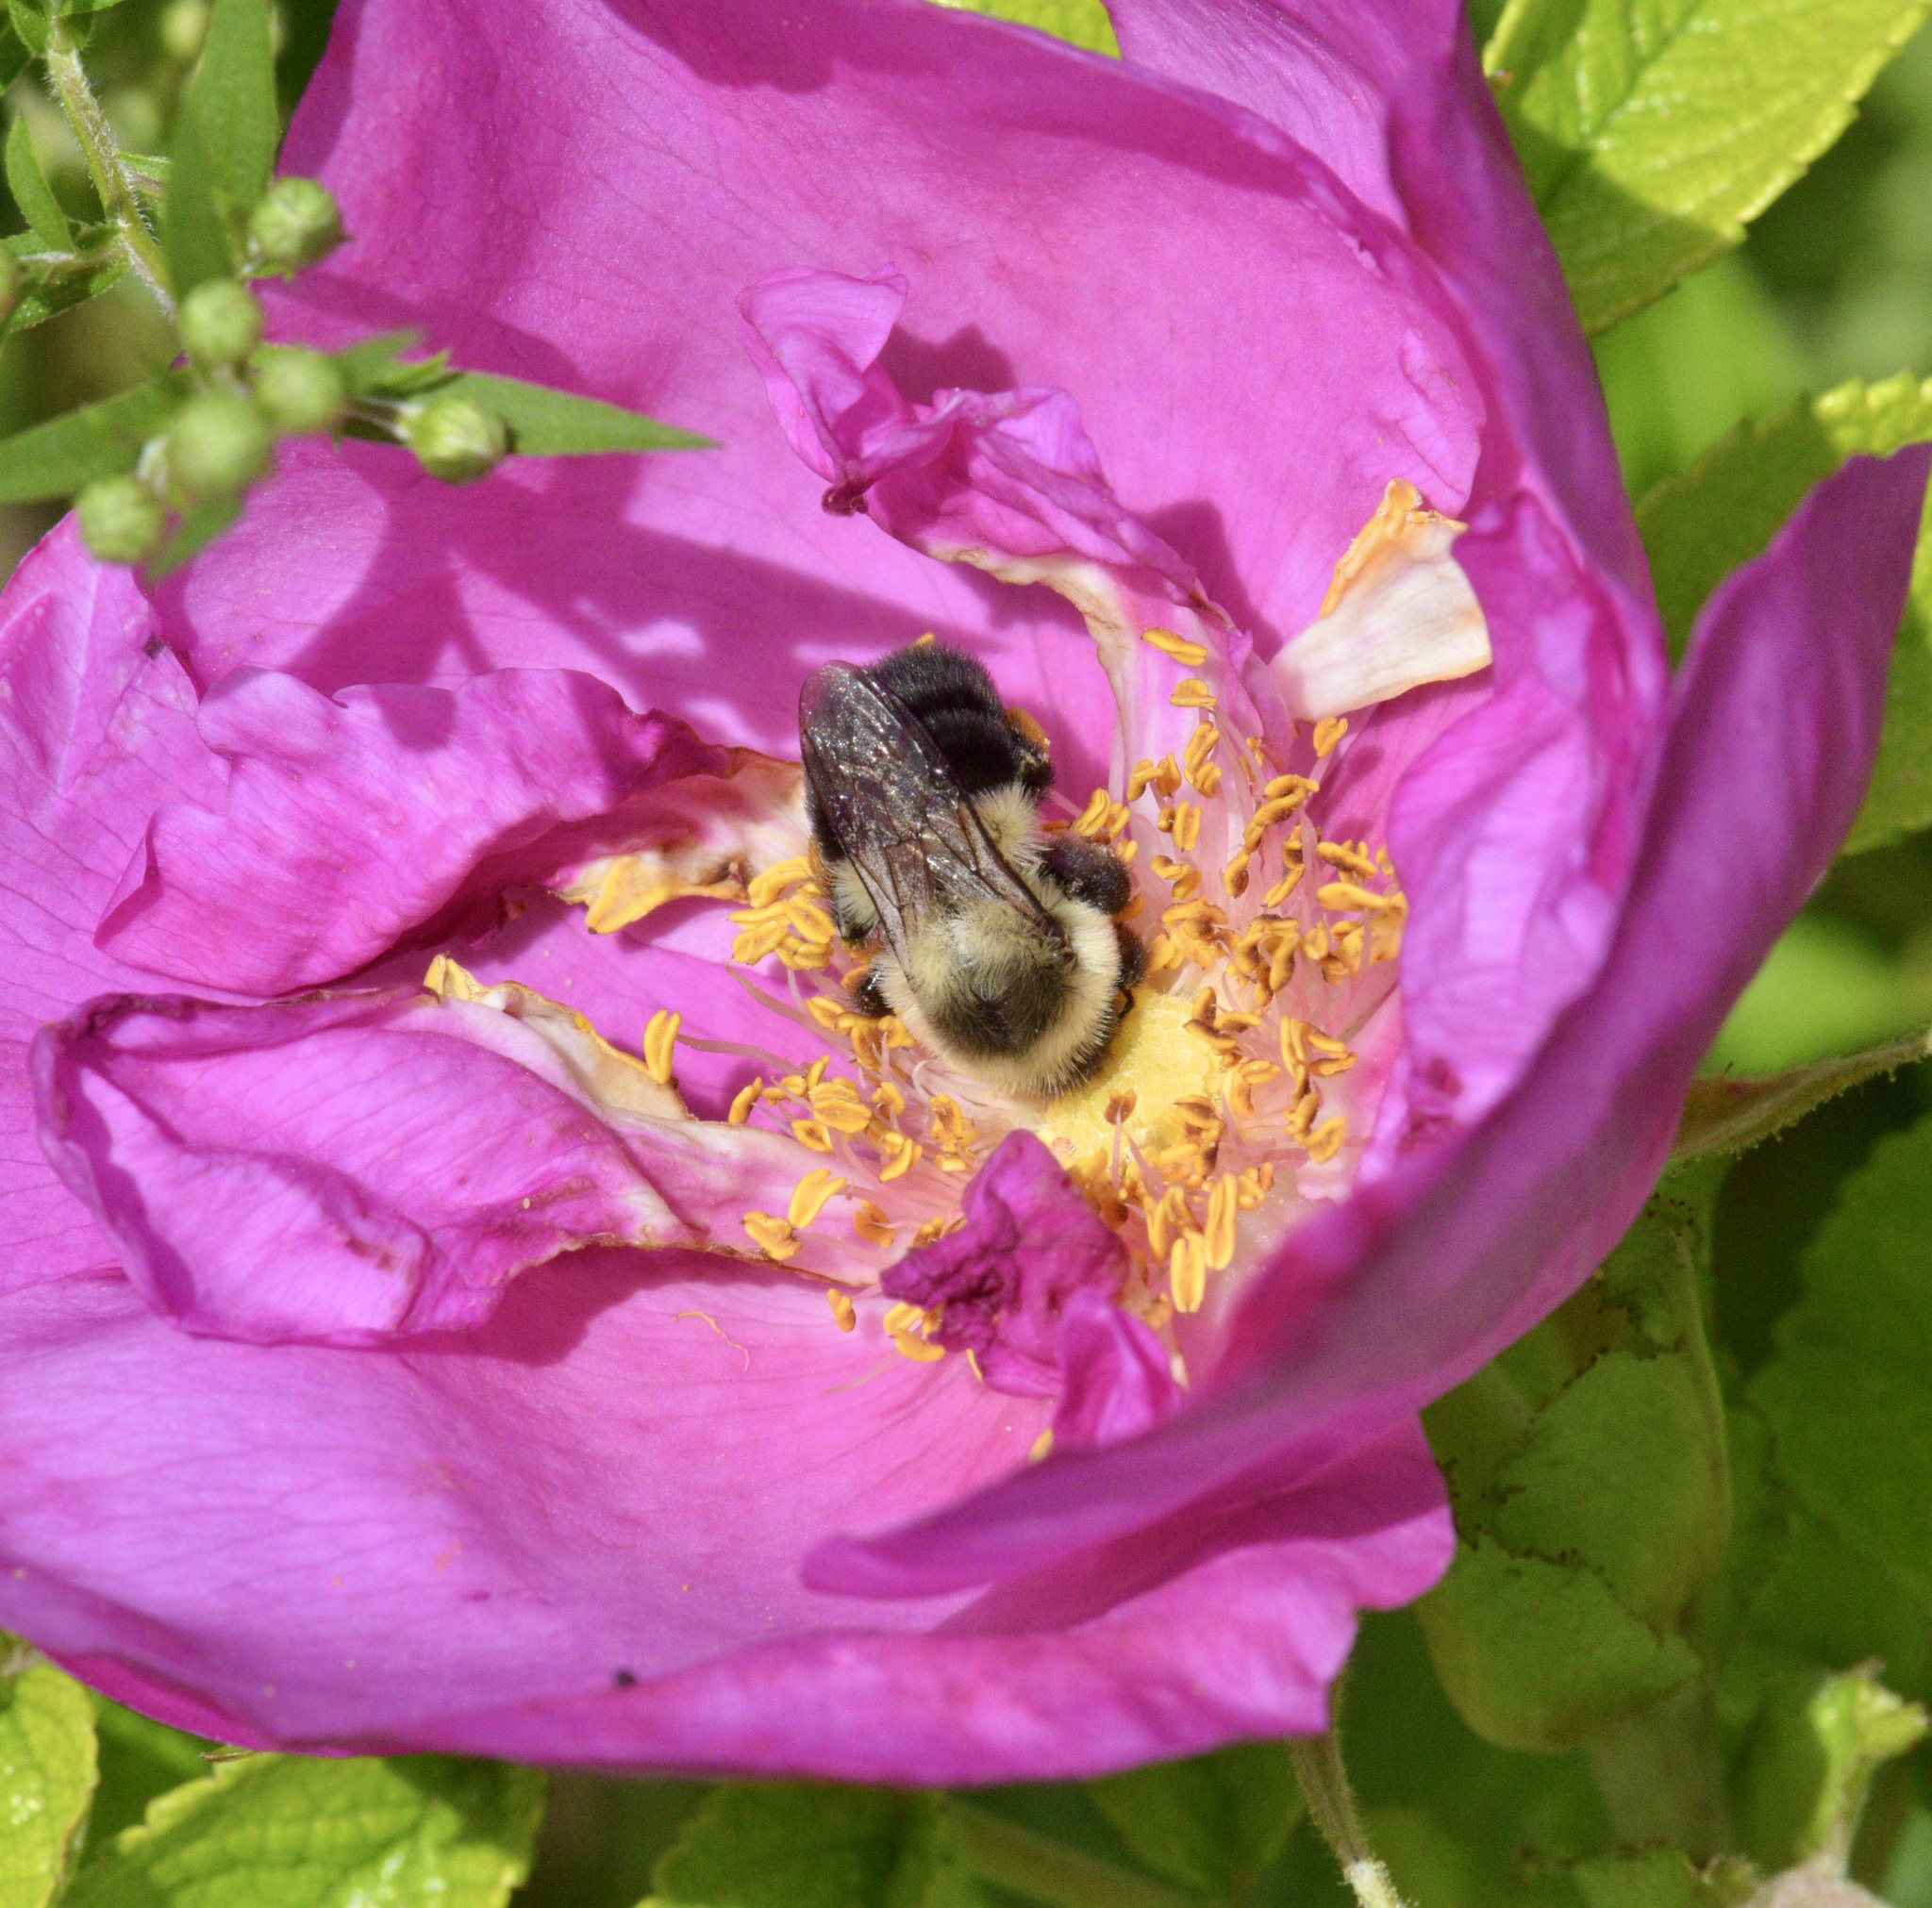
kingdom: Animalia
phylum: Arthropoda
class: Insecta
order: Hymenoptera
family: Apidae
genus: Bombus
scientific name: Bombus impatiens
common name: Common eastern bumble bee
